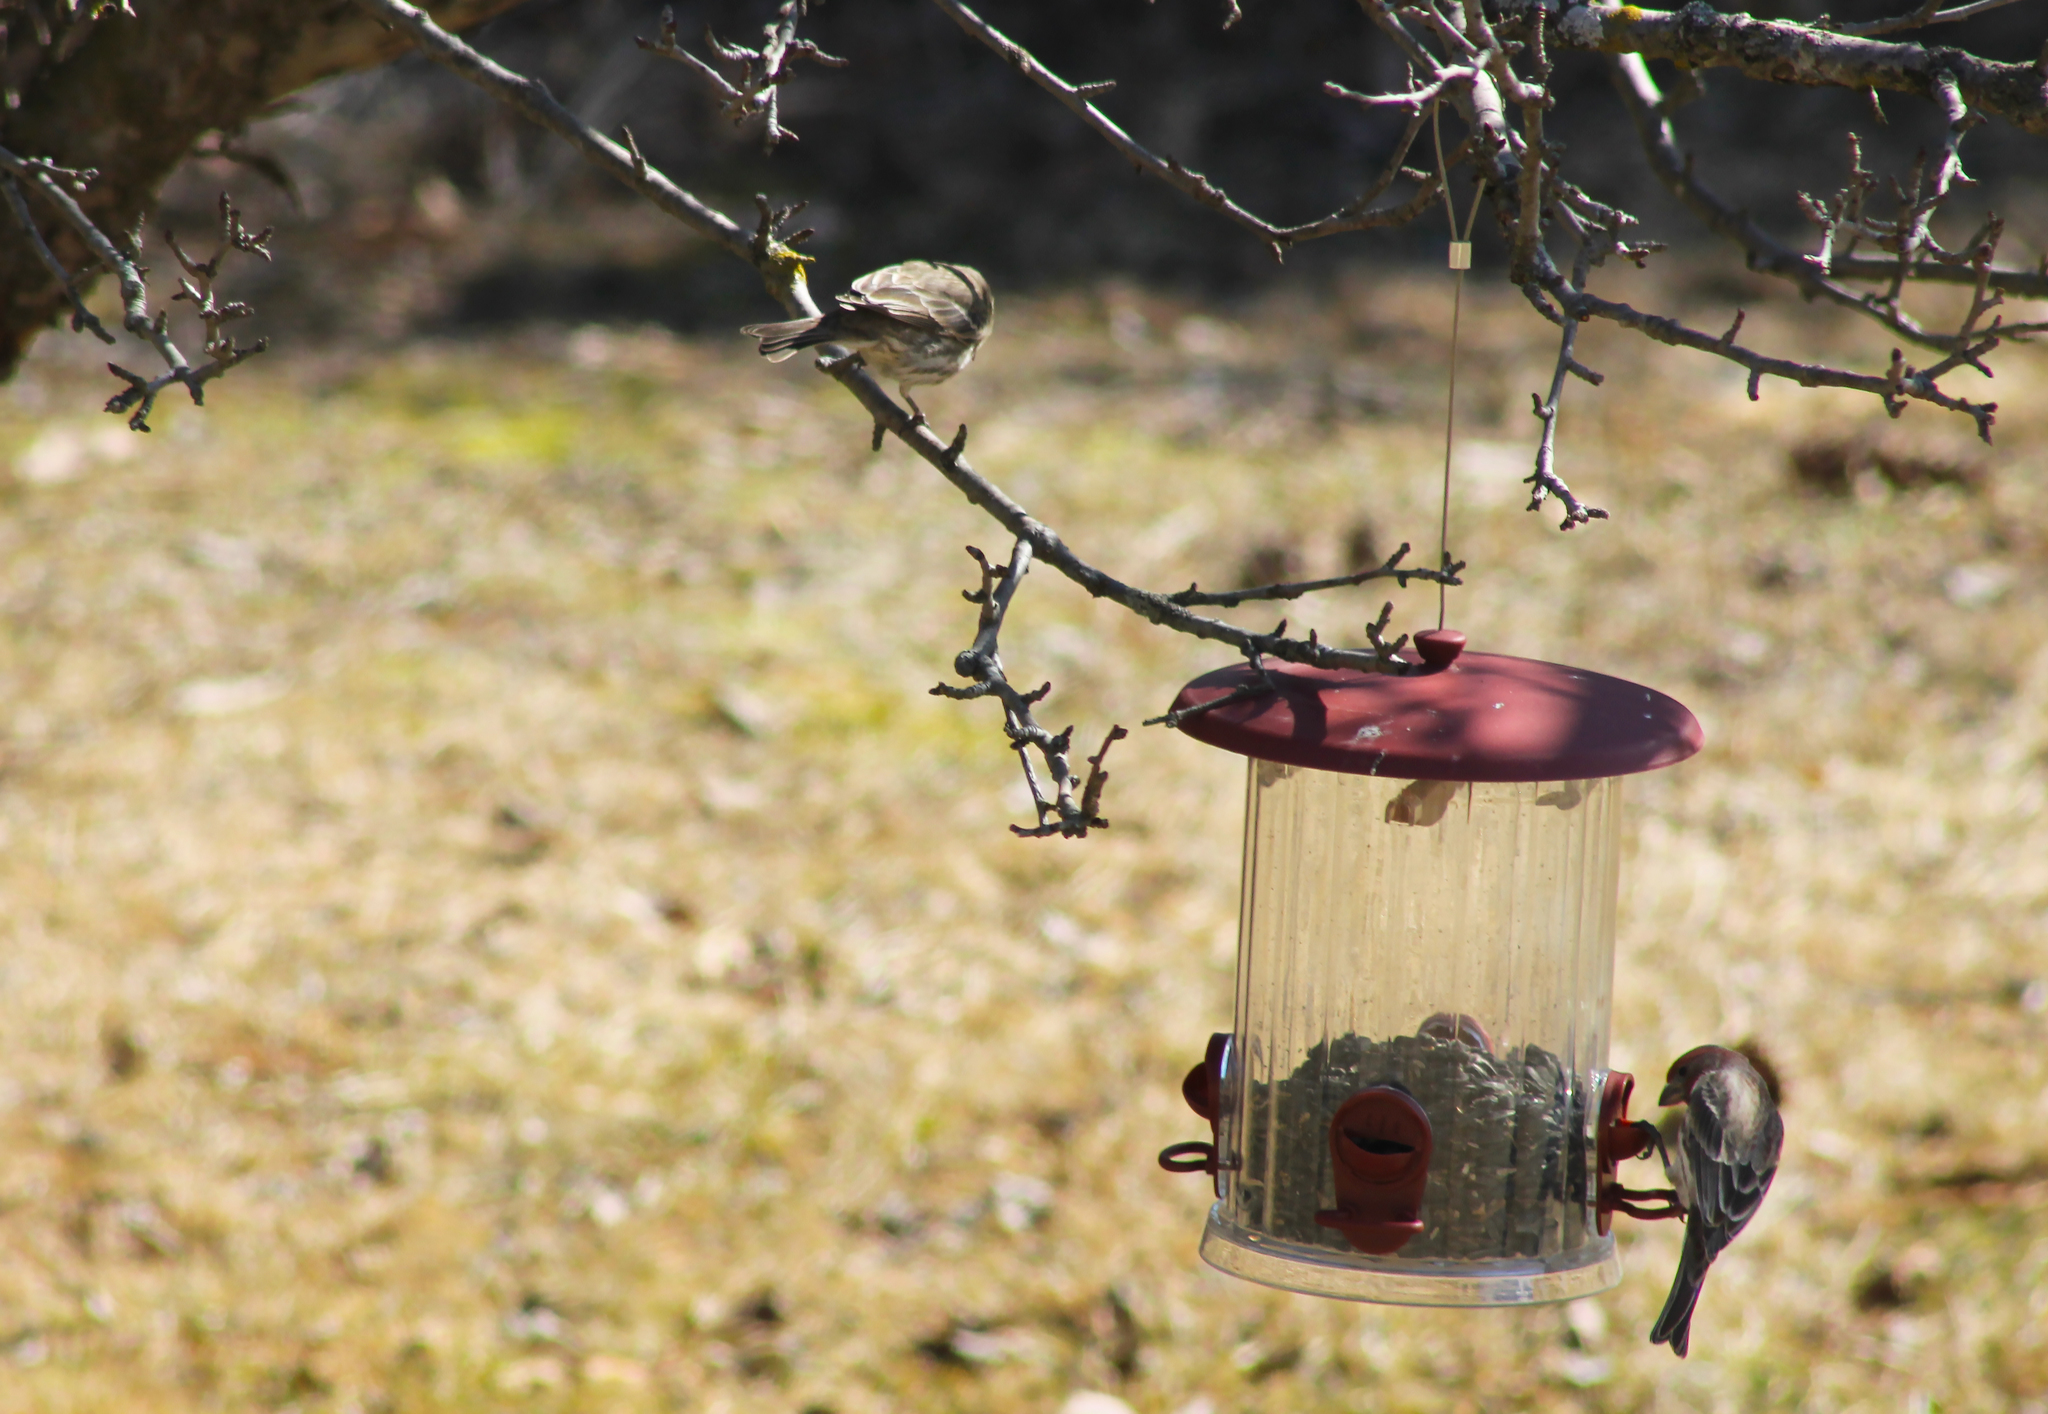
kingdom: Animalia
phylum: Chordata
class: Aves
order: Passeriformes
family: Fringillidae
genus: Haemorhous
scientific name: Haemorhous mexicanus
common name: House finch
